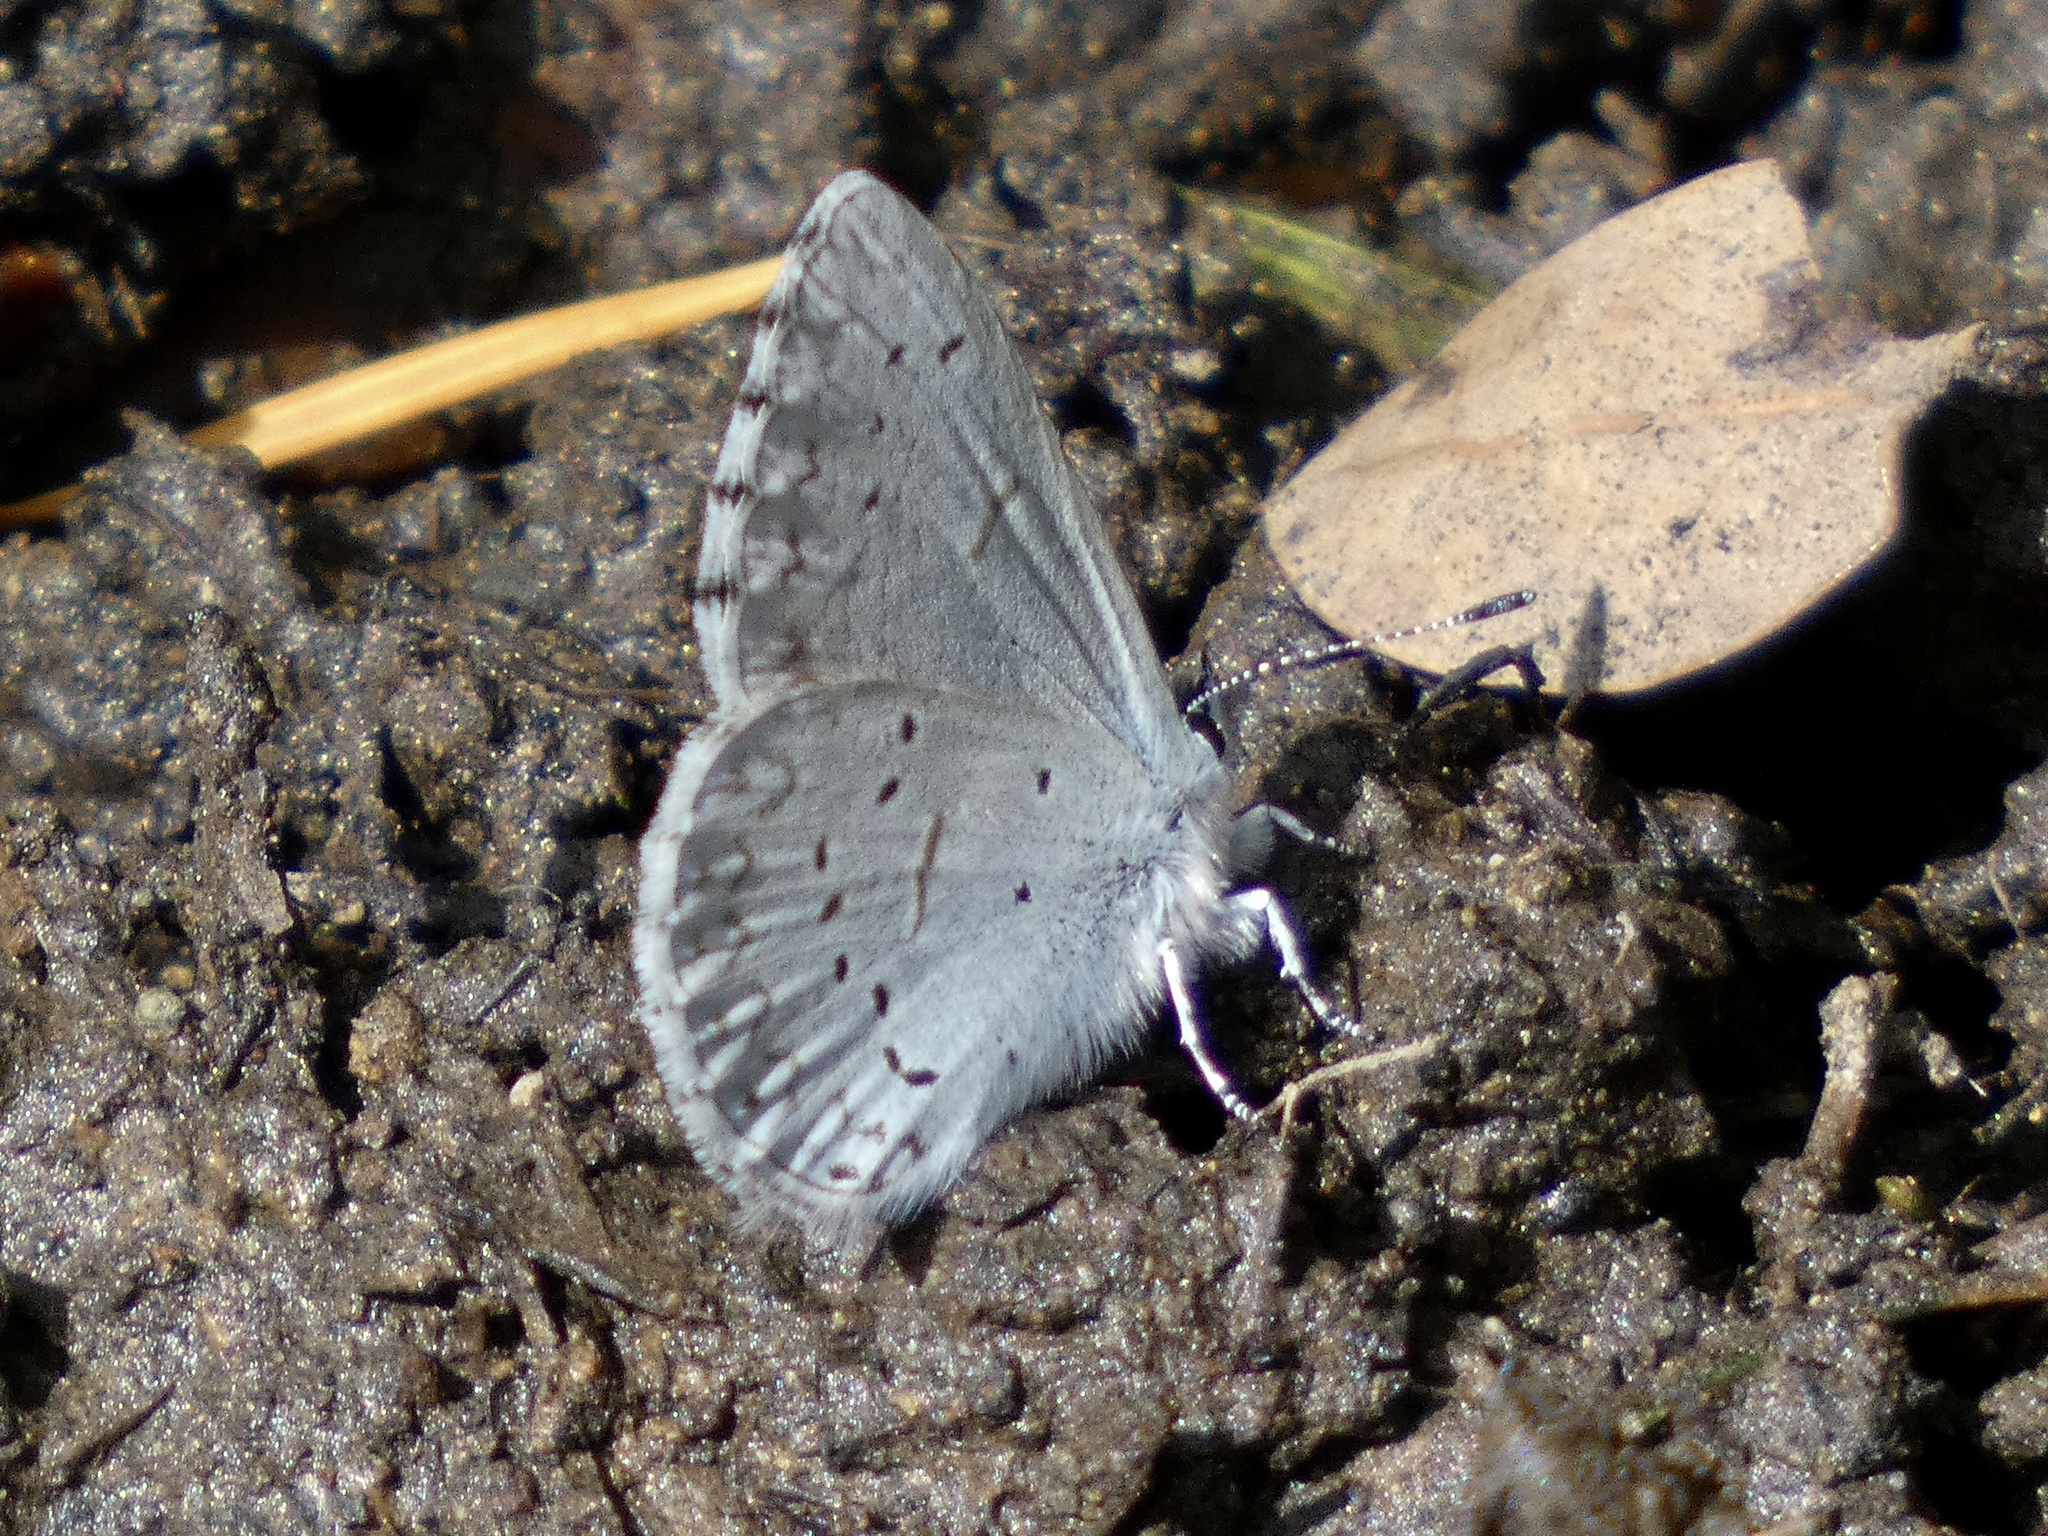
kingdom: Animalia
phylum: Arthropoda
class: Insecta
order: Lepidoptera
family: Lycaenidae
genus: Celastrina
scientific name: Celastrina ladon
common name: Spring azure
